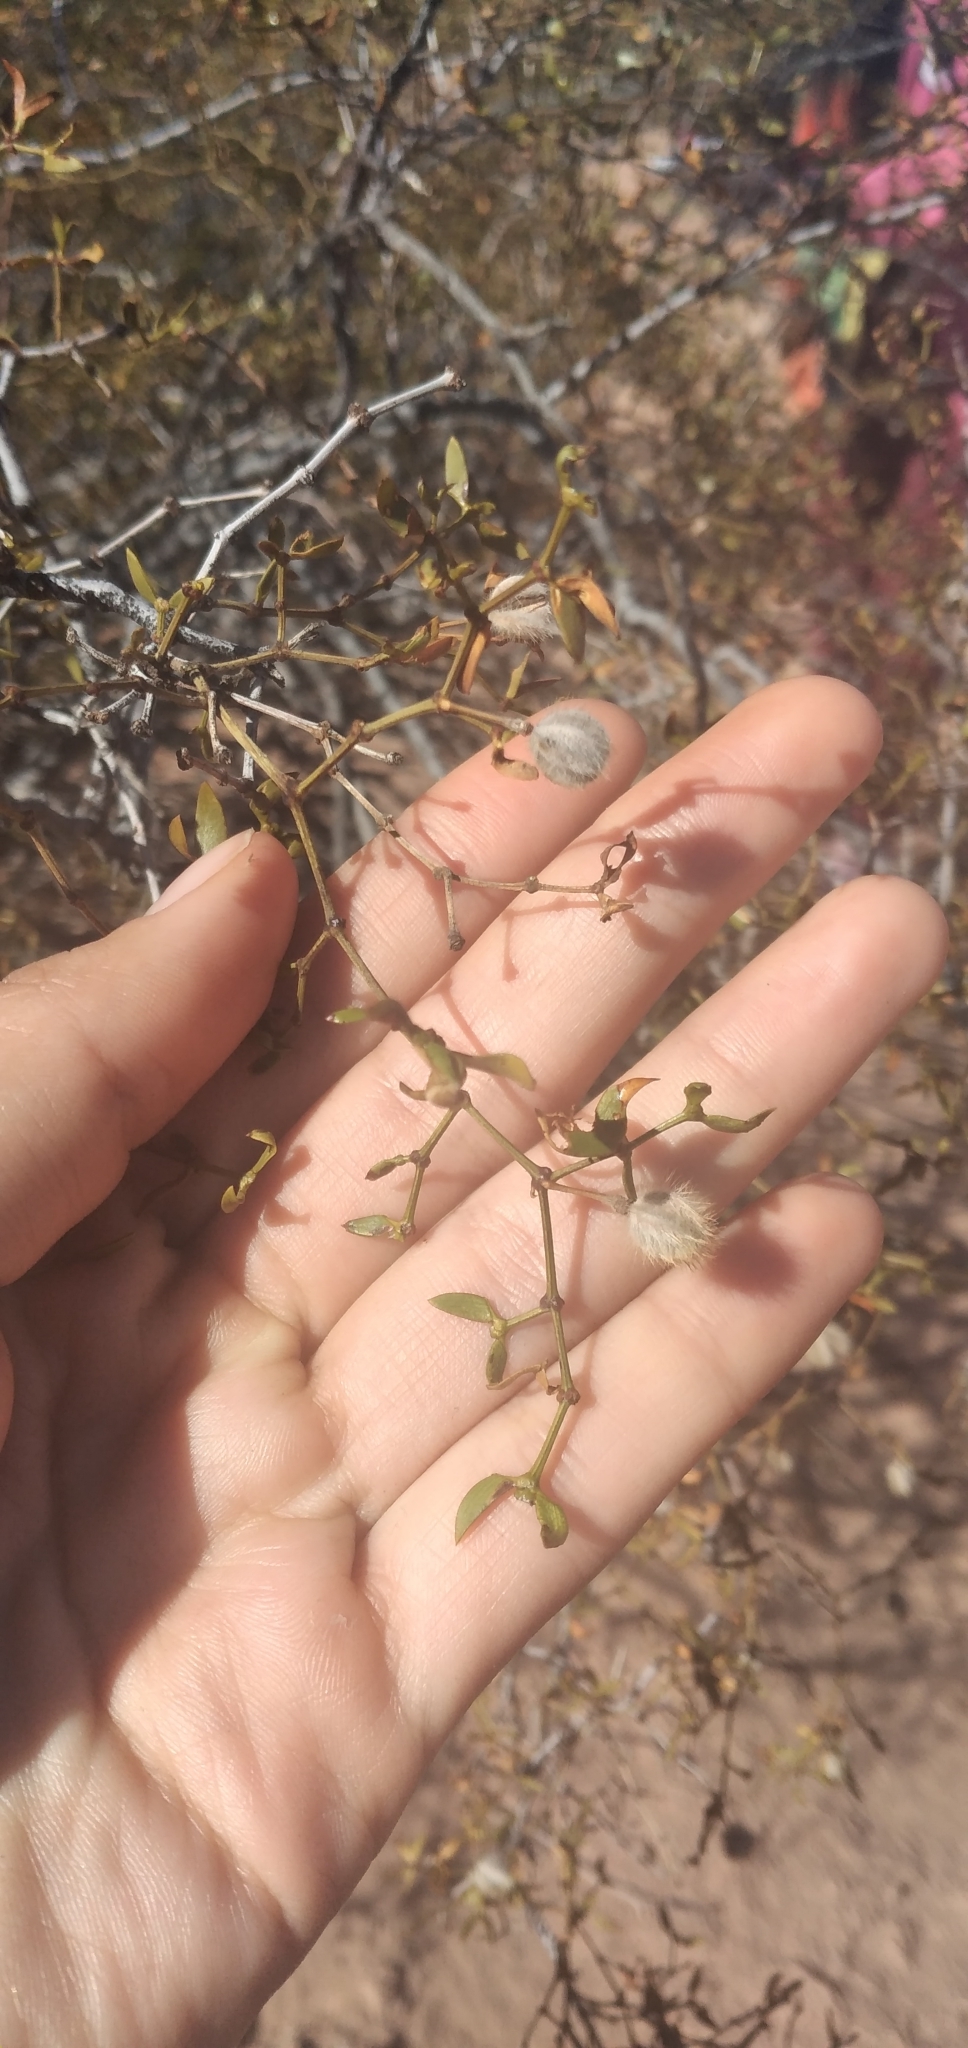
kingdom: Plantae
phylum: Tracheophyta
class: Magnoliopsida
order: Zygophyllales
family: Zygophyllaceae
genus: Larrea
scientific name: Larrea divaricata
